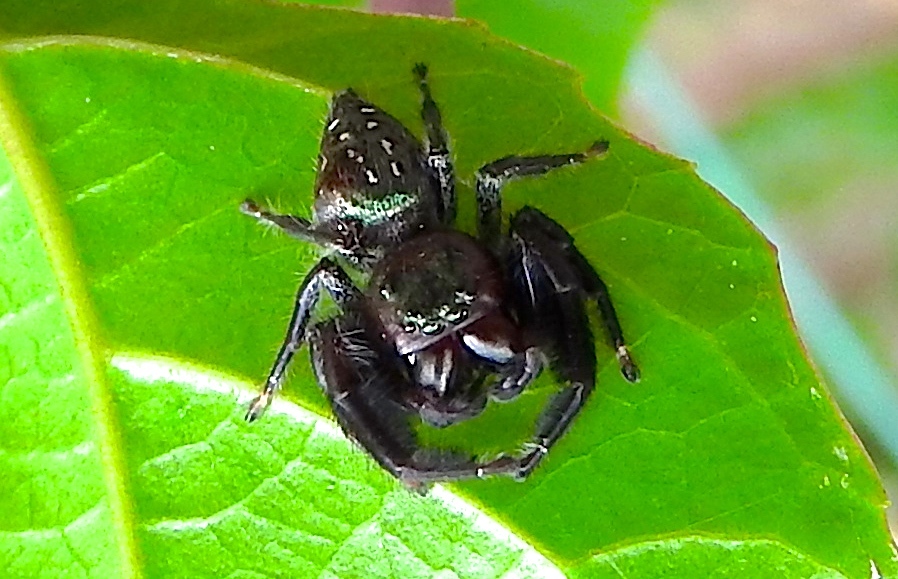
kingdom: Animalia
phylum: Arthropoda
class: Arachnida
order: Araneae
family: Salticidae
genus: Paraphidippus
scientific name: Paraphidippus fartilis
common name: Jumping spiders
